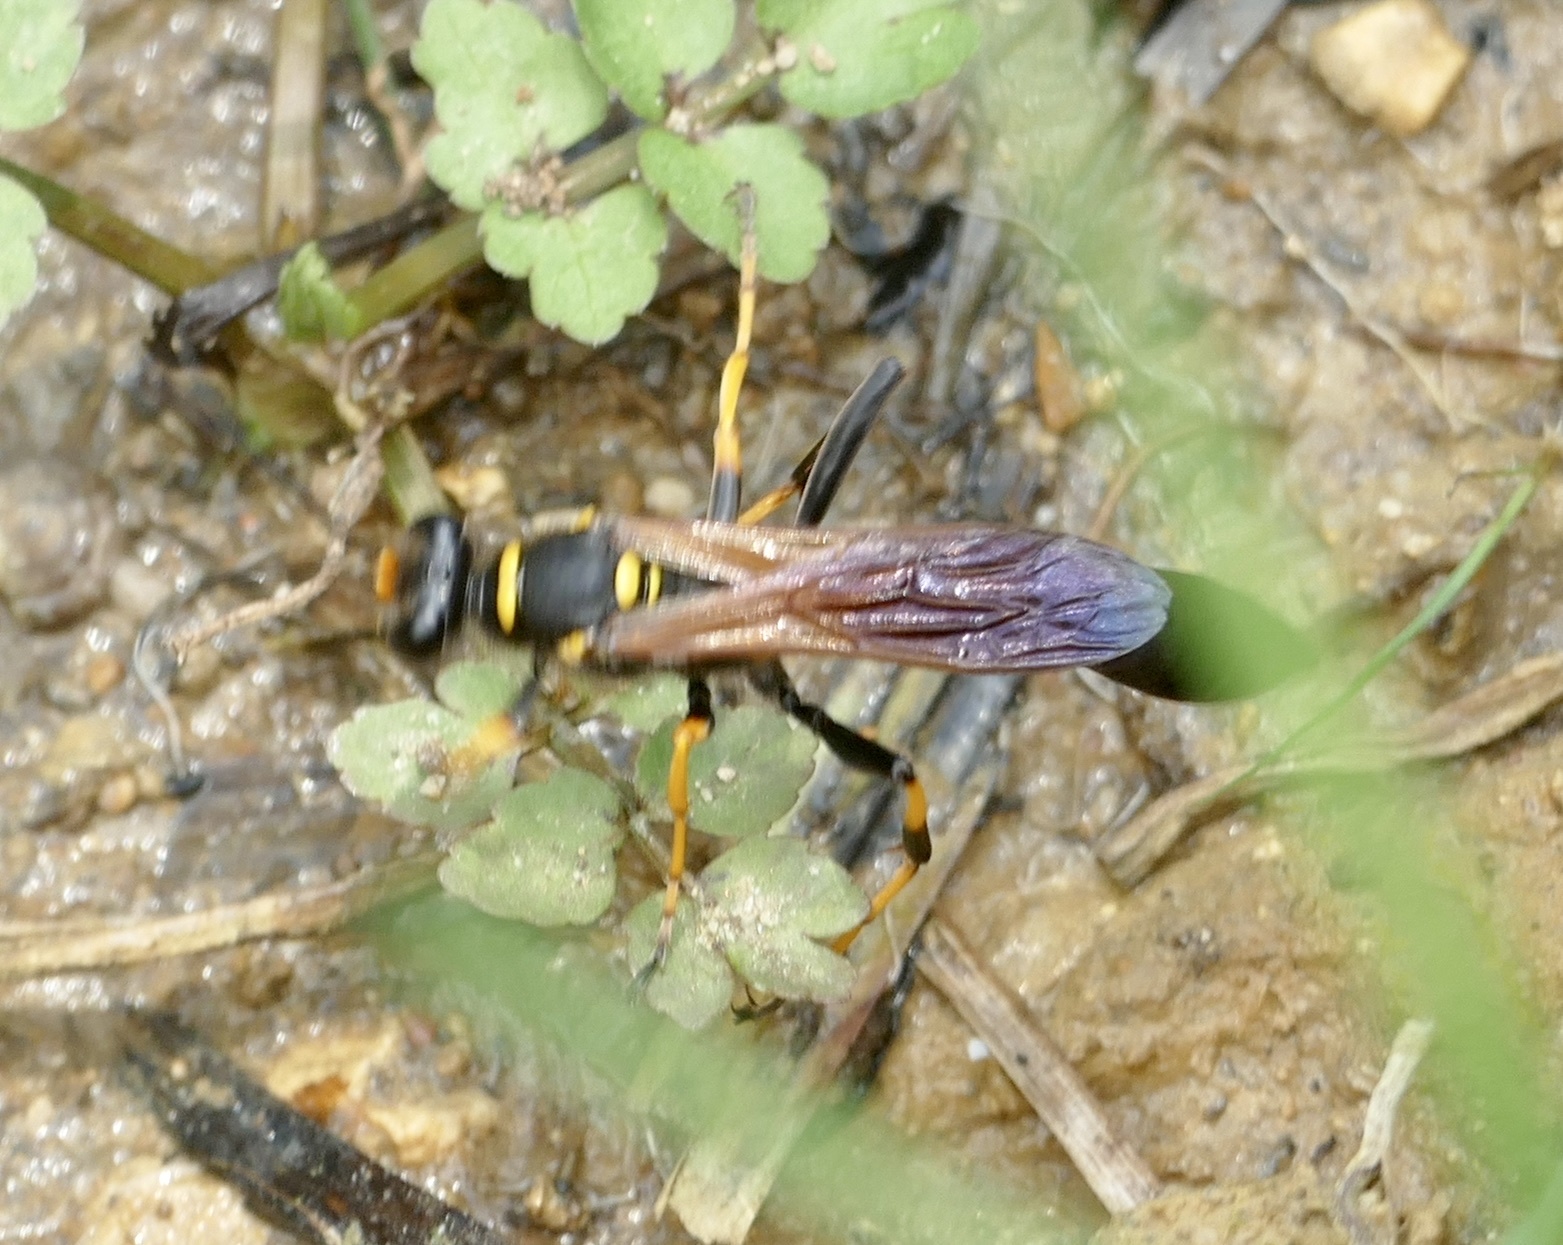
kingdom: Animalia
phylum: Arthropoda
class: Insecta
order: Hymenoptera
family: Sphecidae
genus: Sceliphron
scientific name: Sceliphron caementarium
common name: Mud dauber
